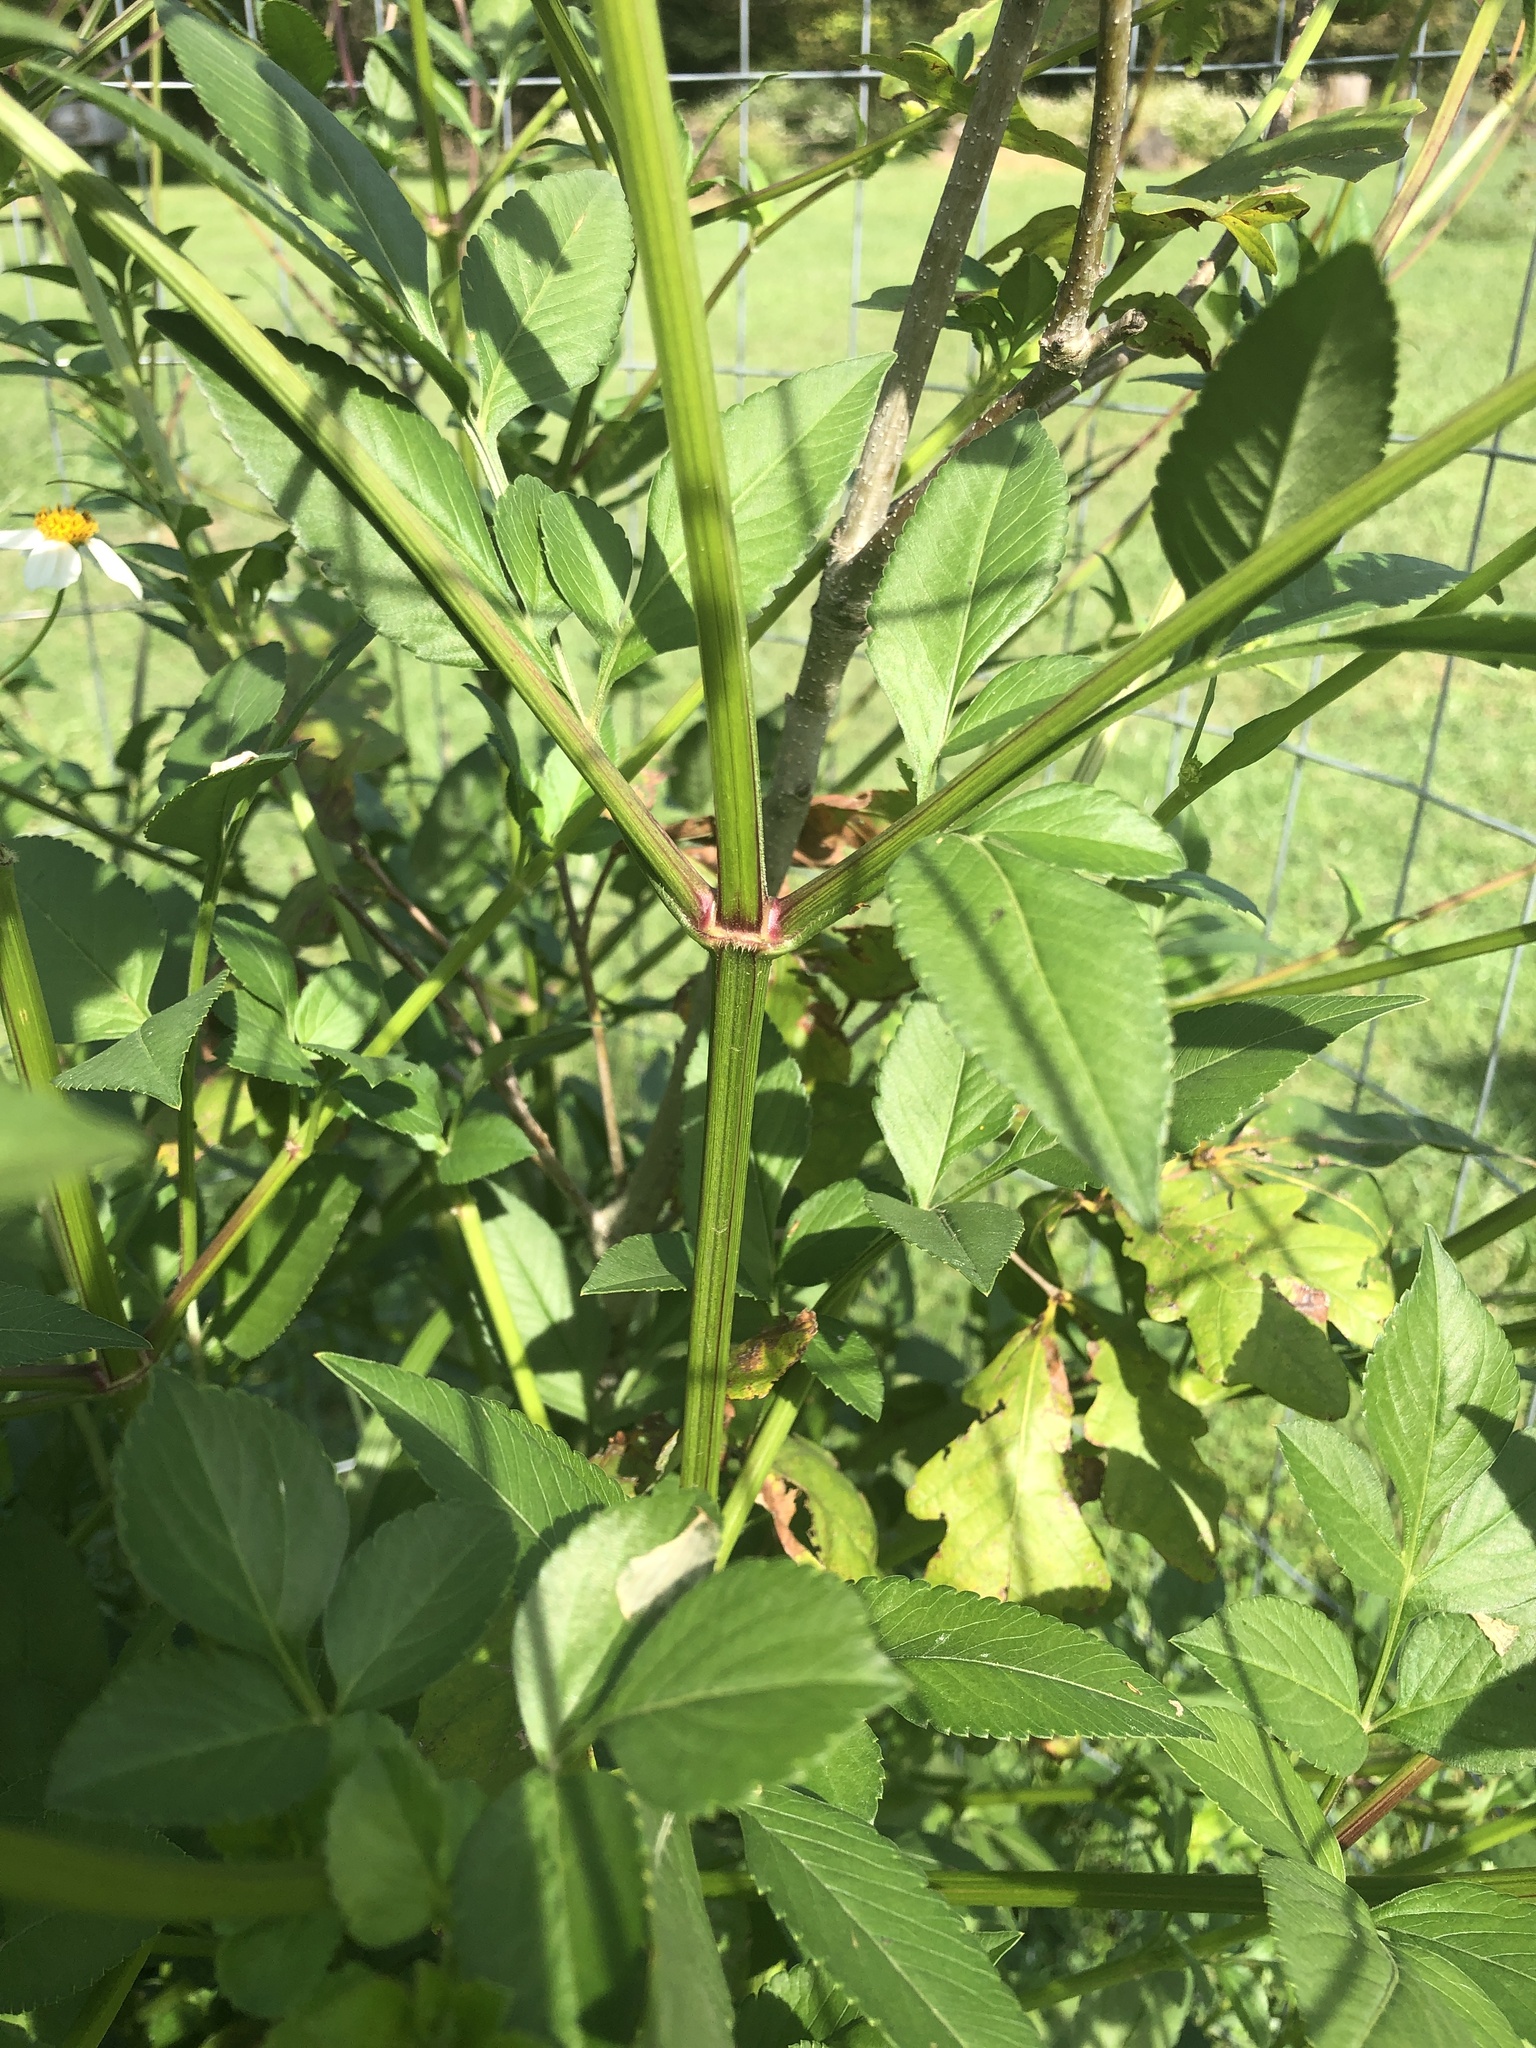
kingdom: Plantae
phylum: Tracheophyta
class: Magnoliopsida
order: Asterales
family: Asteraceae
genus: Bidens
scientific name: Bidens alba
